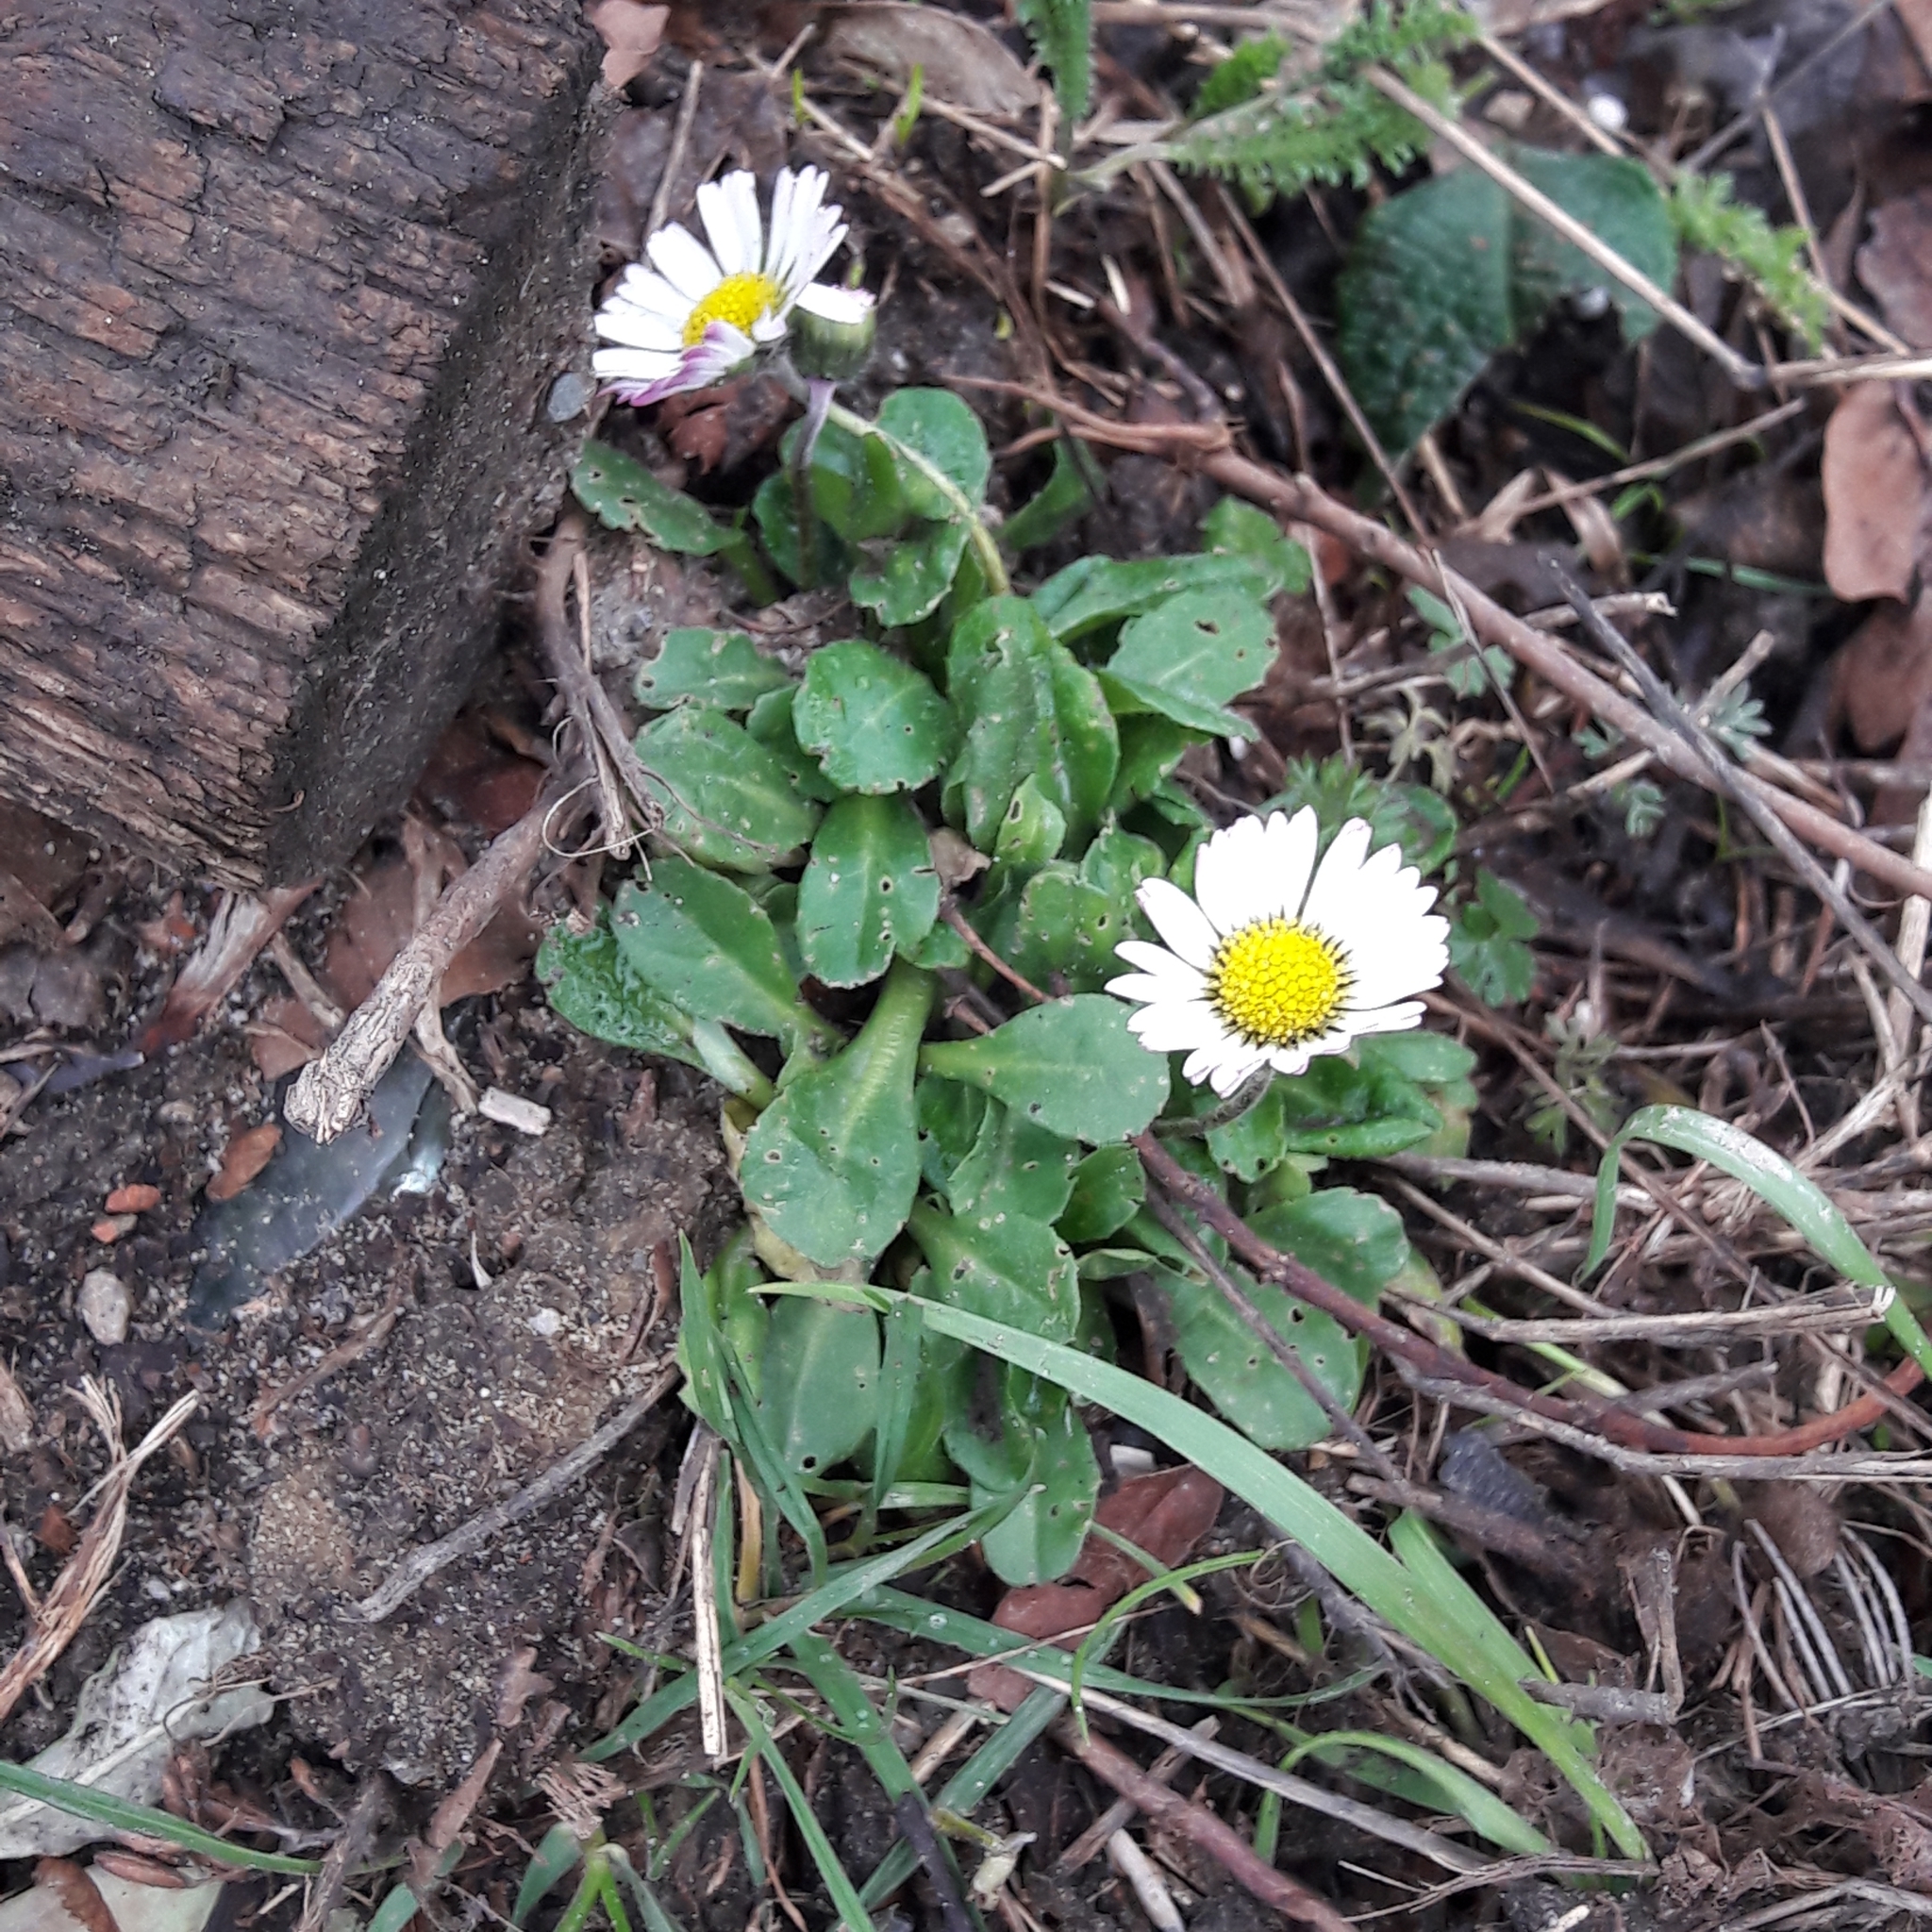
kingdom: Plantae
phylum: Tracheophyta
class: Magnoliopsida
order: Asterales
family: Asteraceae
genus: Bellis
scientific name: Bellis perennis
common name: Lawndaisy
